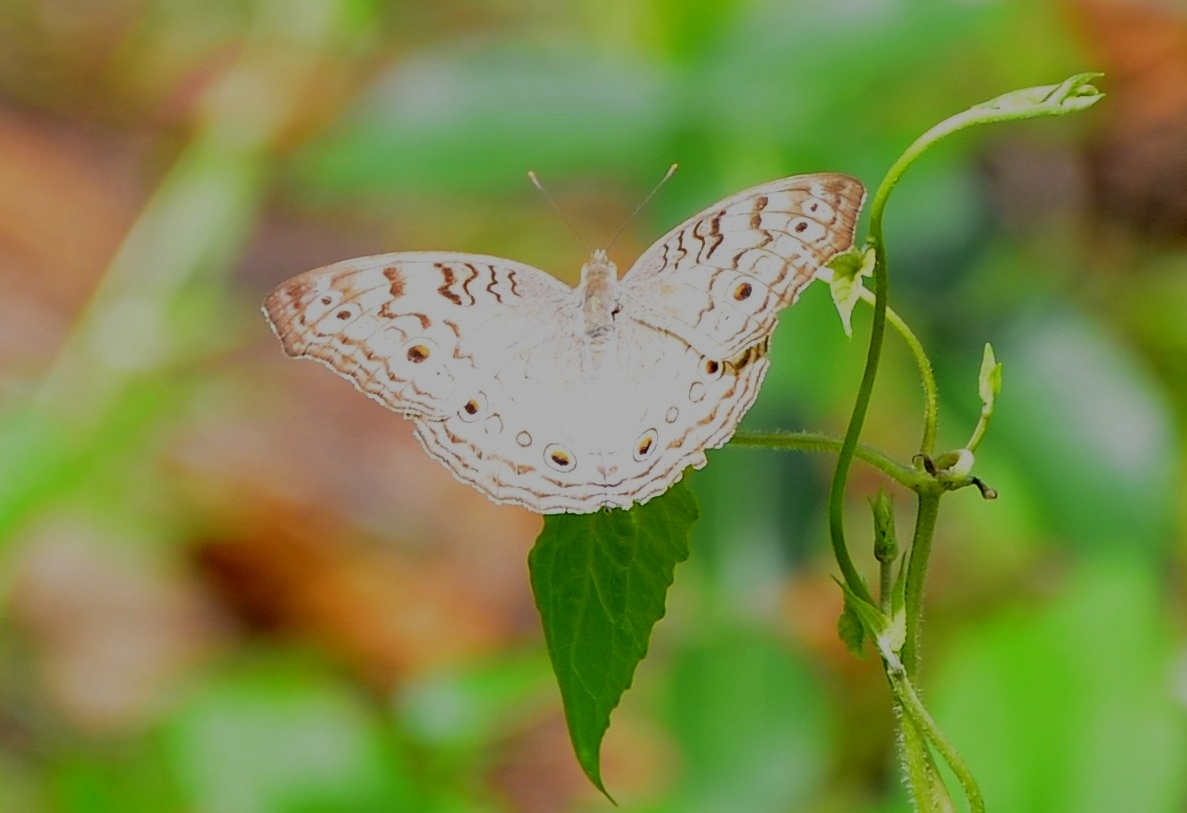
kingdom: Animalia
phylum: Arthropoda
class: Insecta
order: Lepidoptera
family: Nymphalidae
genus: Junonia
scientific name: Junonia atlites
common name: Grey pansy
